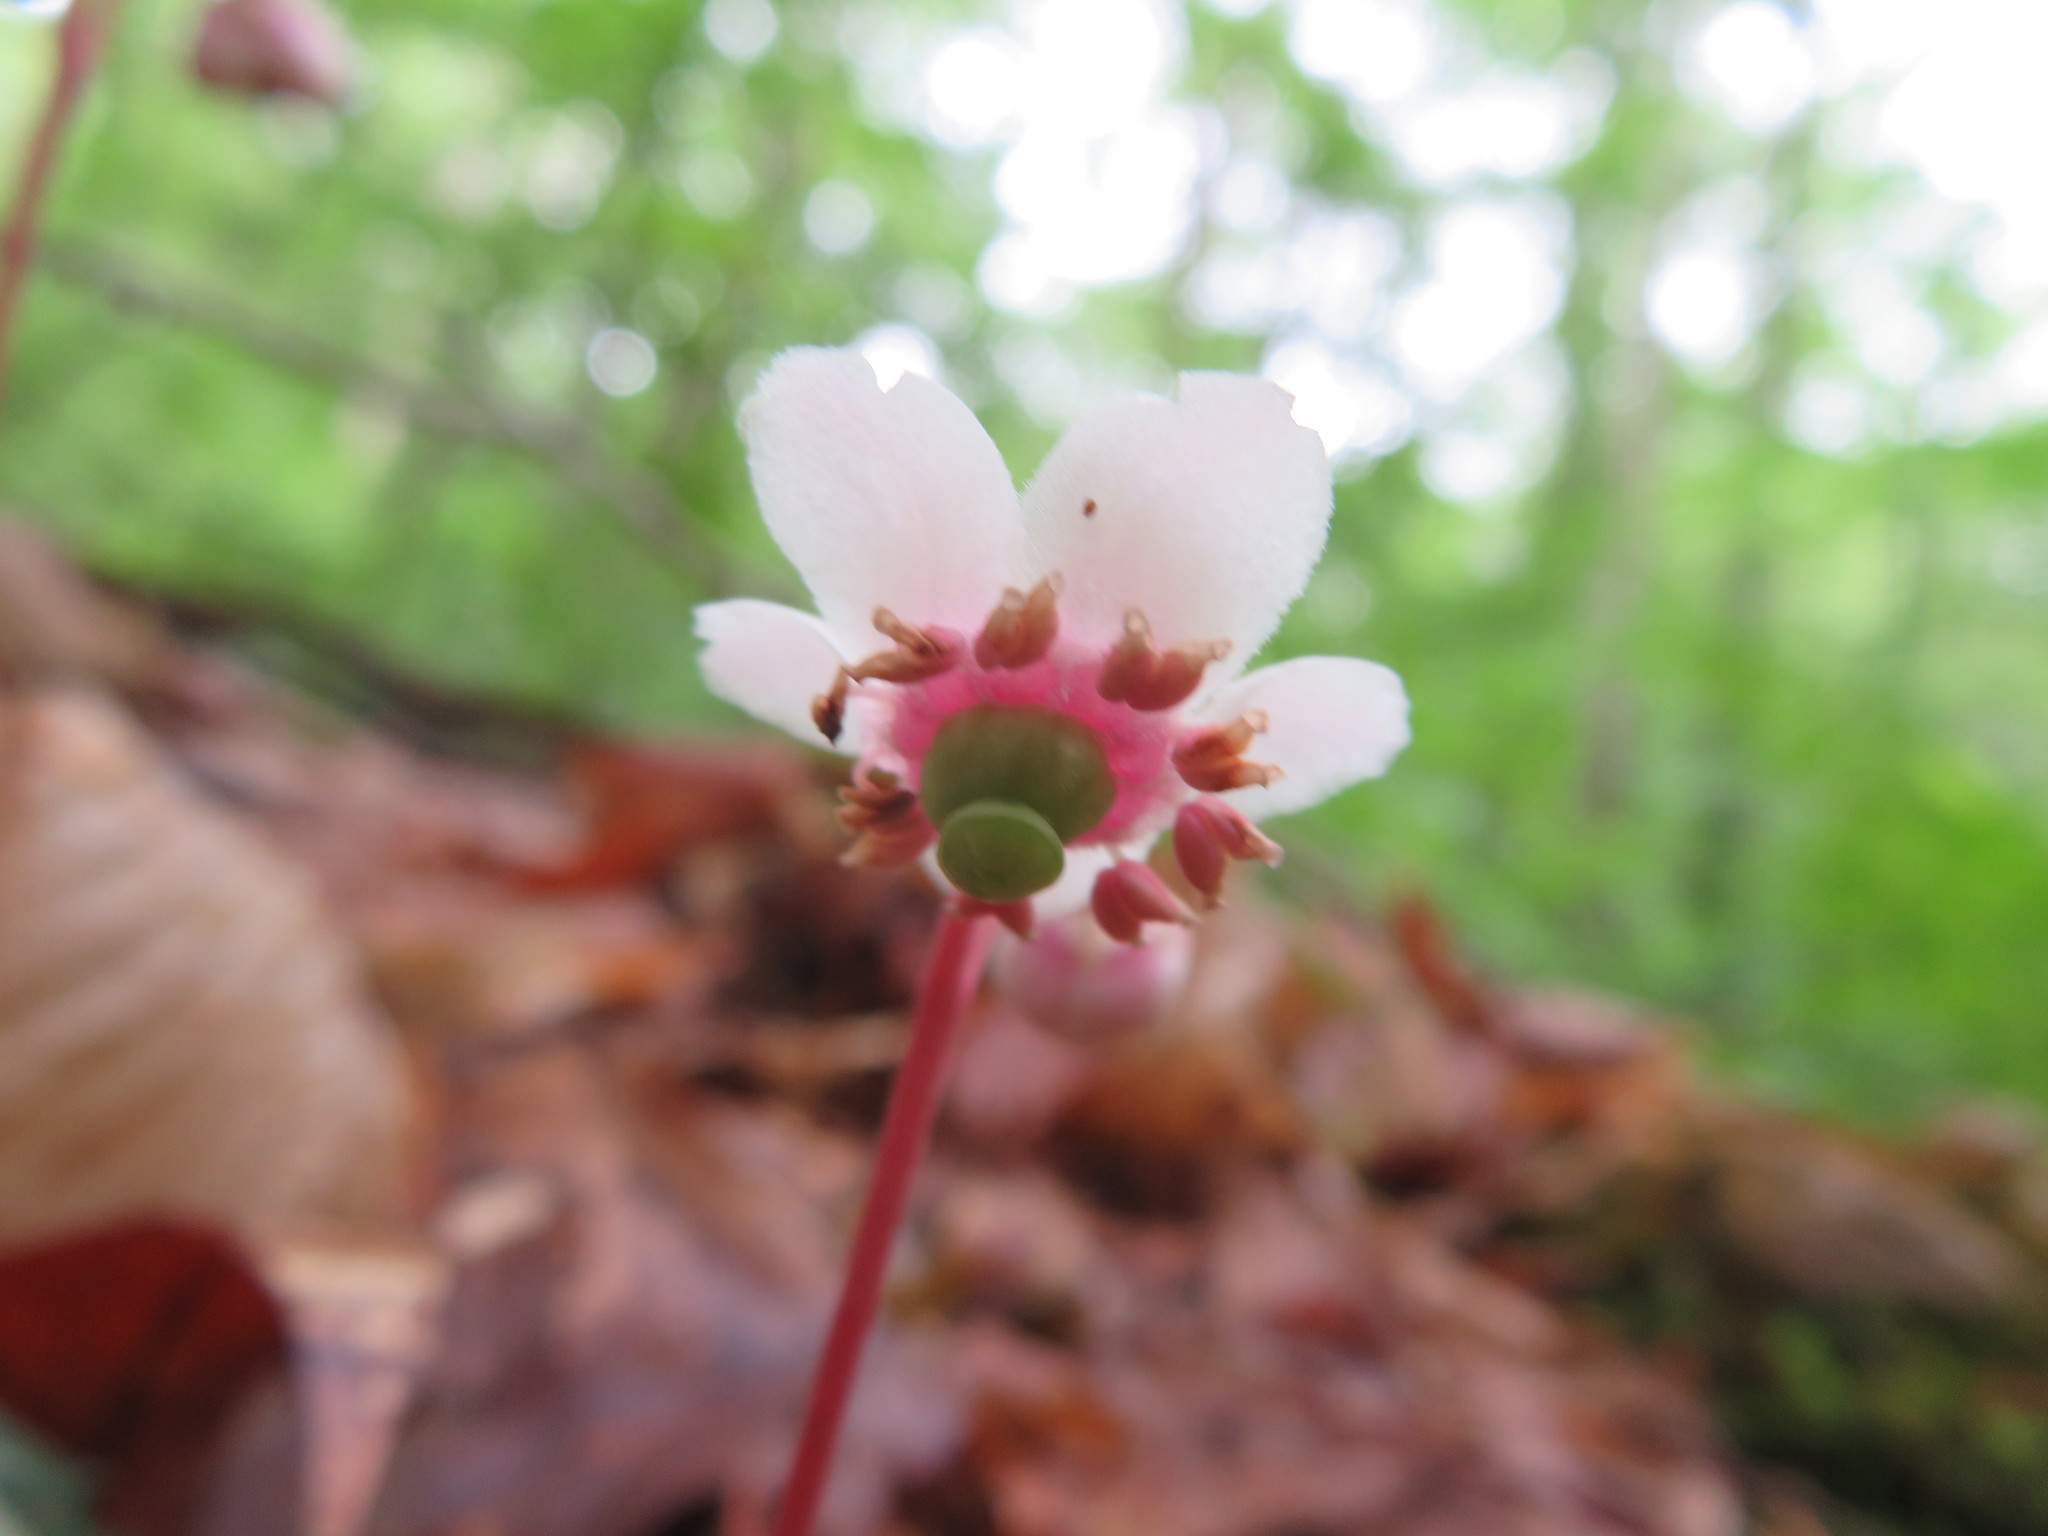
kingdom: Plantae
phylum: Tracheophyta
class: Magnoliopsida
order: Ericales
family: Ericaceae
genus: Chimaphila
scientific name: Chimaphila maculata
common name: Spotted pipsissewa
